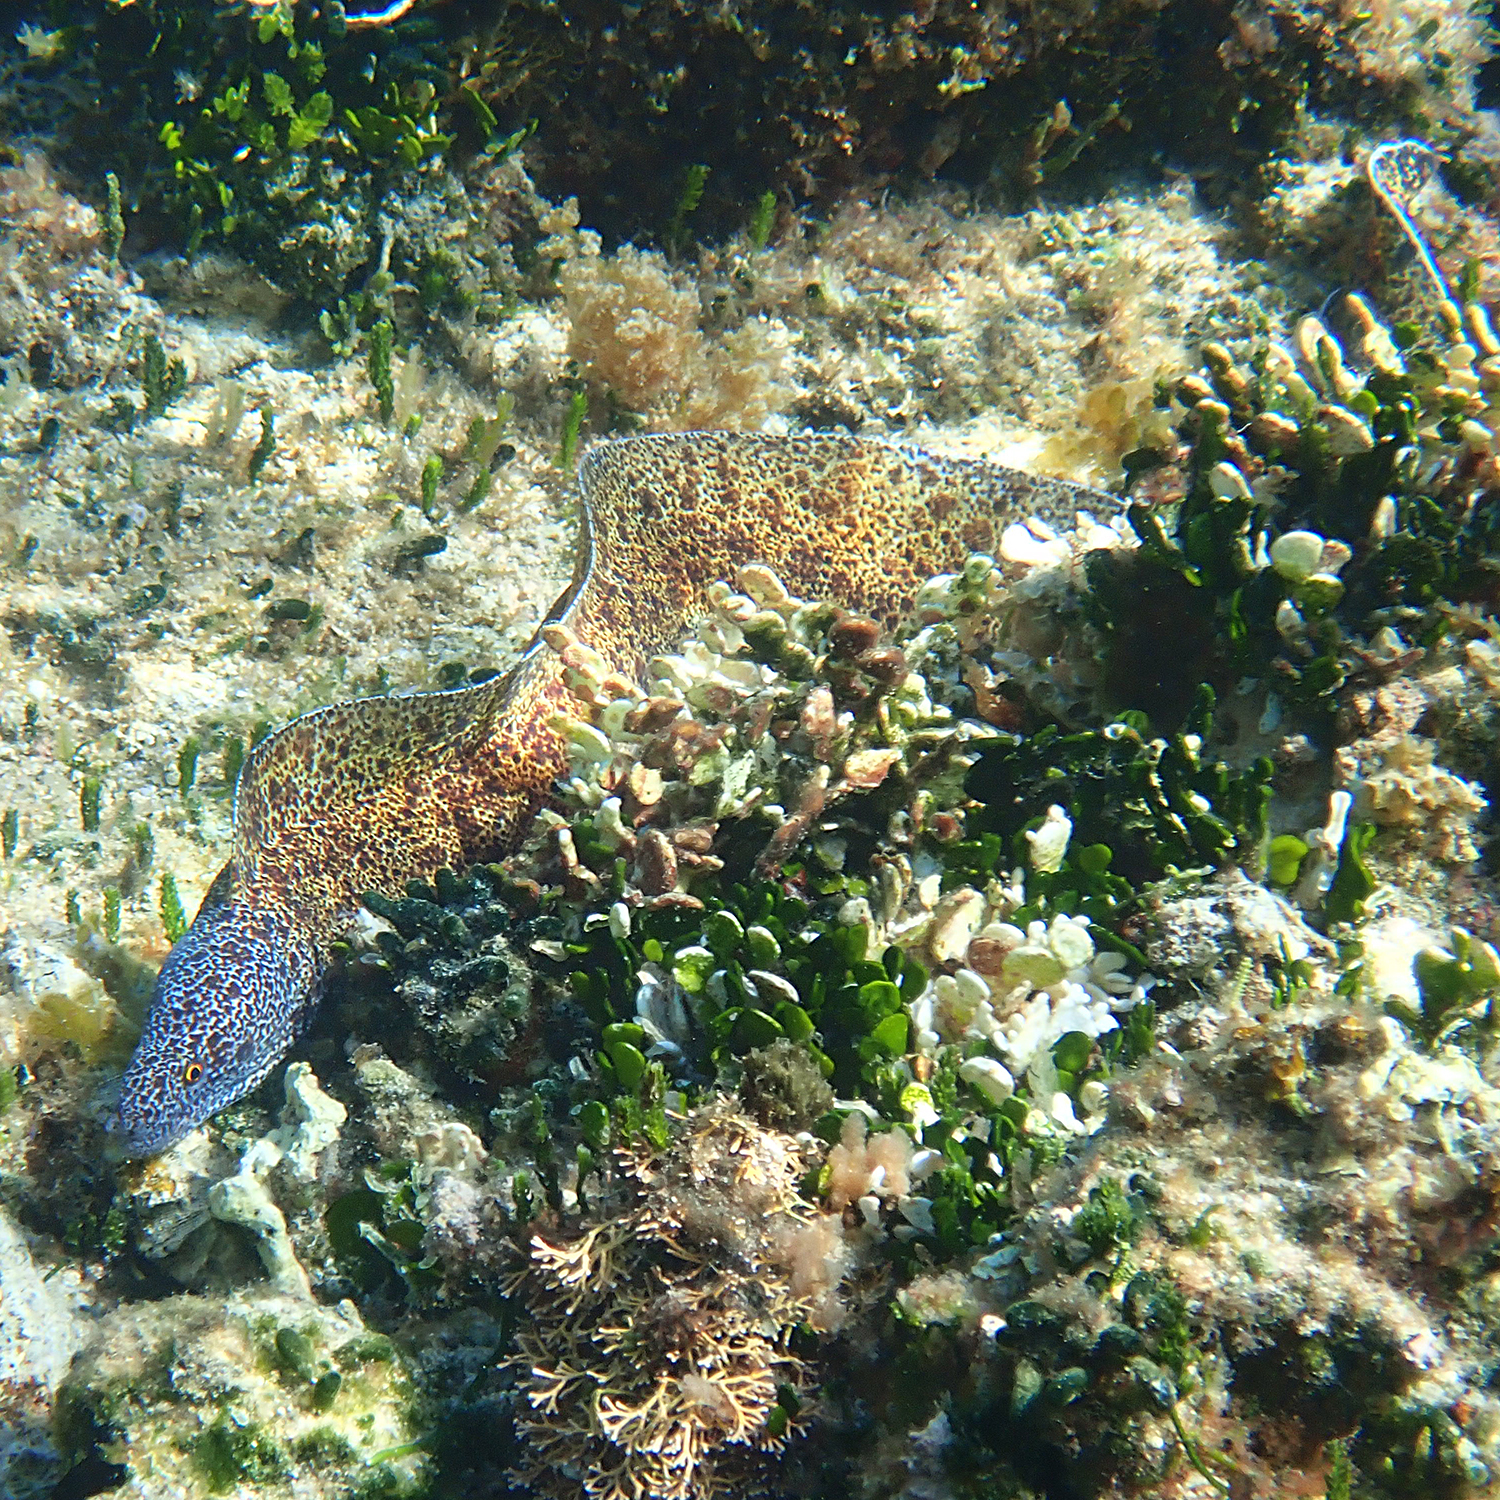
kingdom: Animalia
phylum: Chordata
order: Anguilliformes
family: Muraenidae
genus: Gymnothorax
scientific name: Gymnothorax annasona
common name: Lord howe island moray
